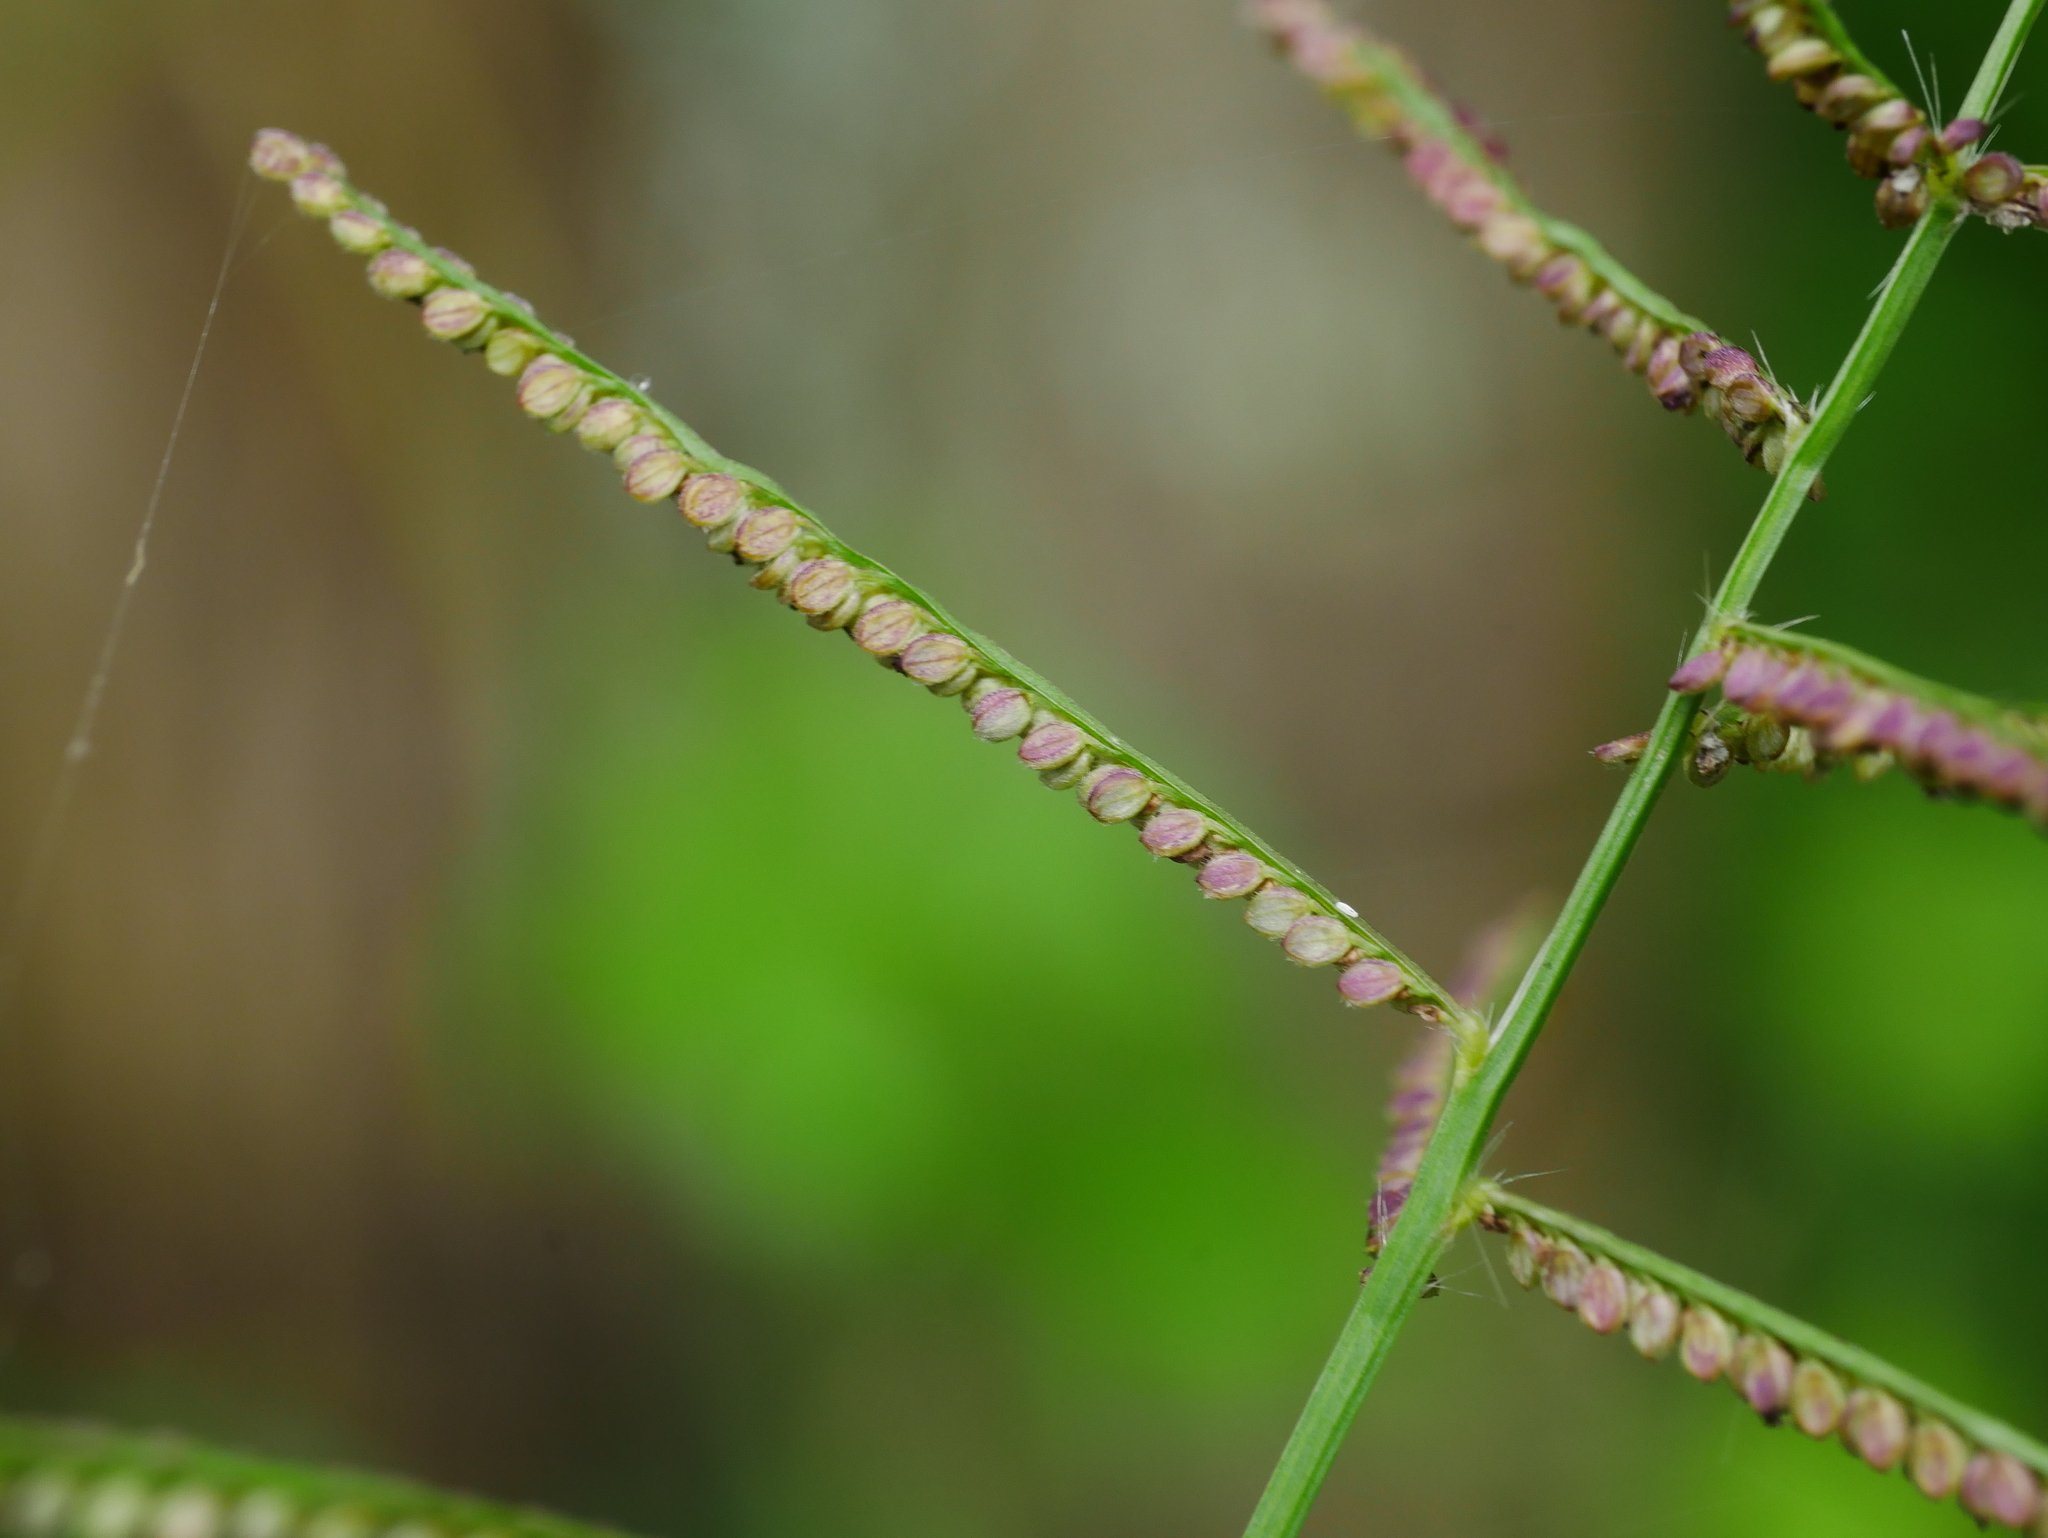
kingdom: Plantae
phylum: Tracheophyta
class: Liliopsida
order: Poales
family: Poaceae
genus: Paspalum
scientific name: Paspalum paniculatum
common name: Arrocillo
